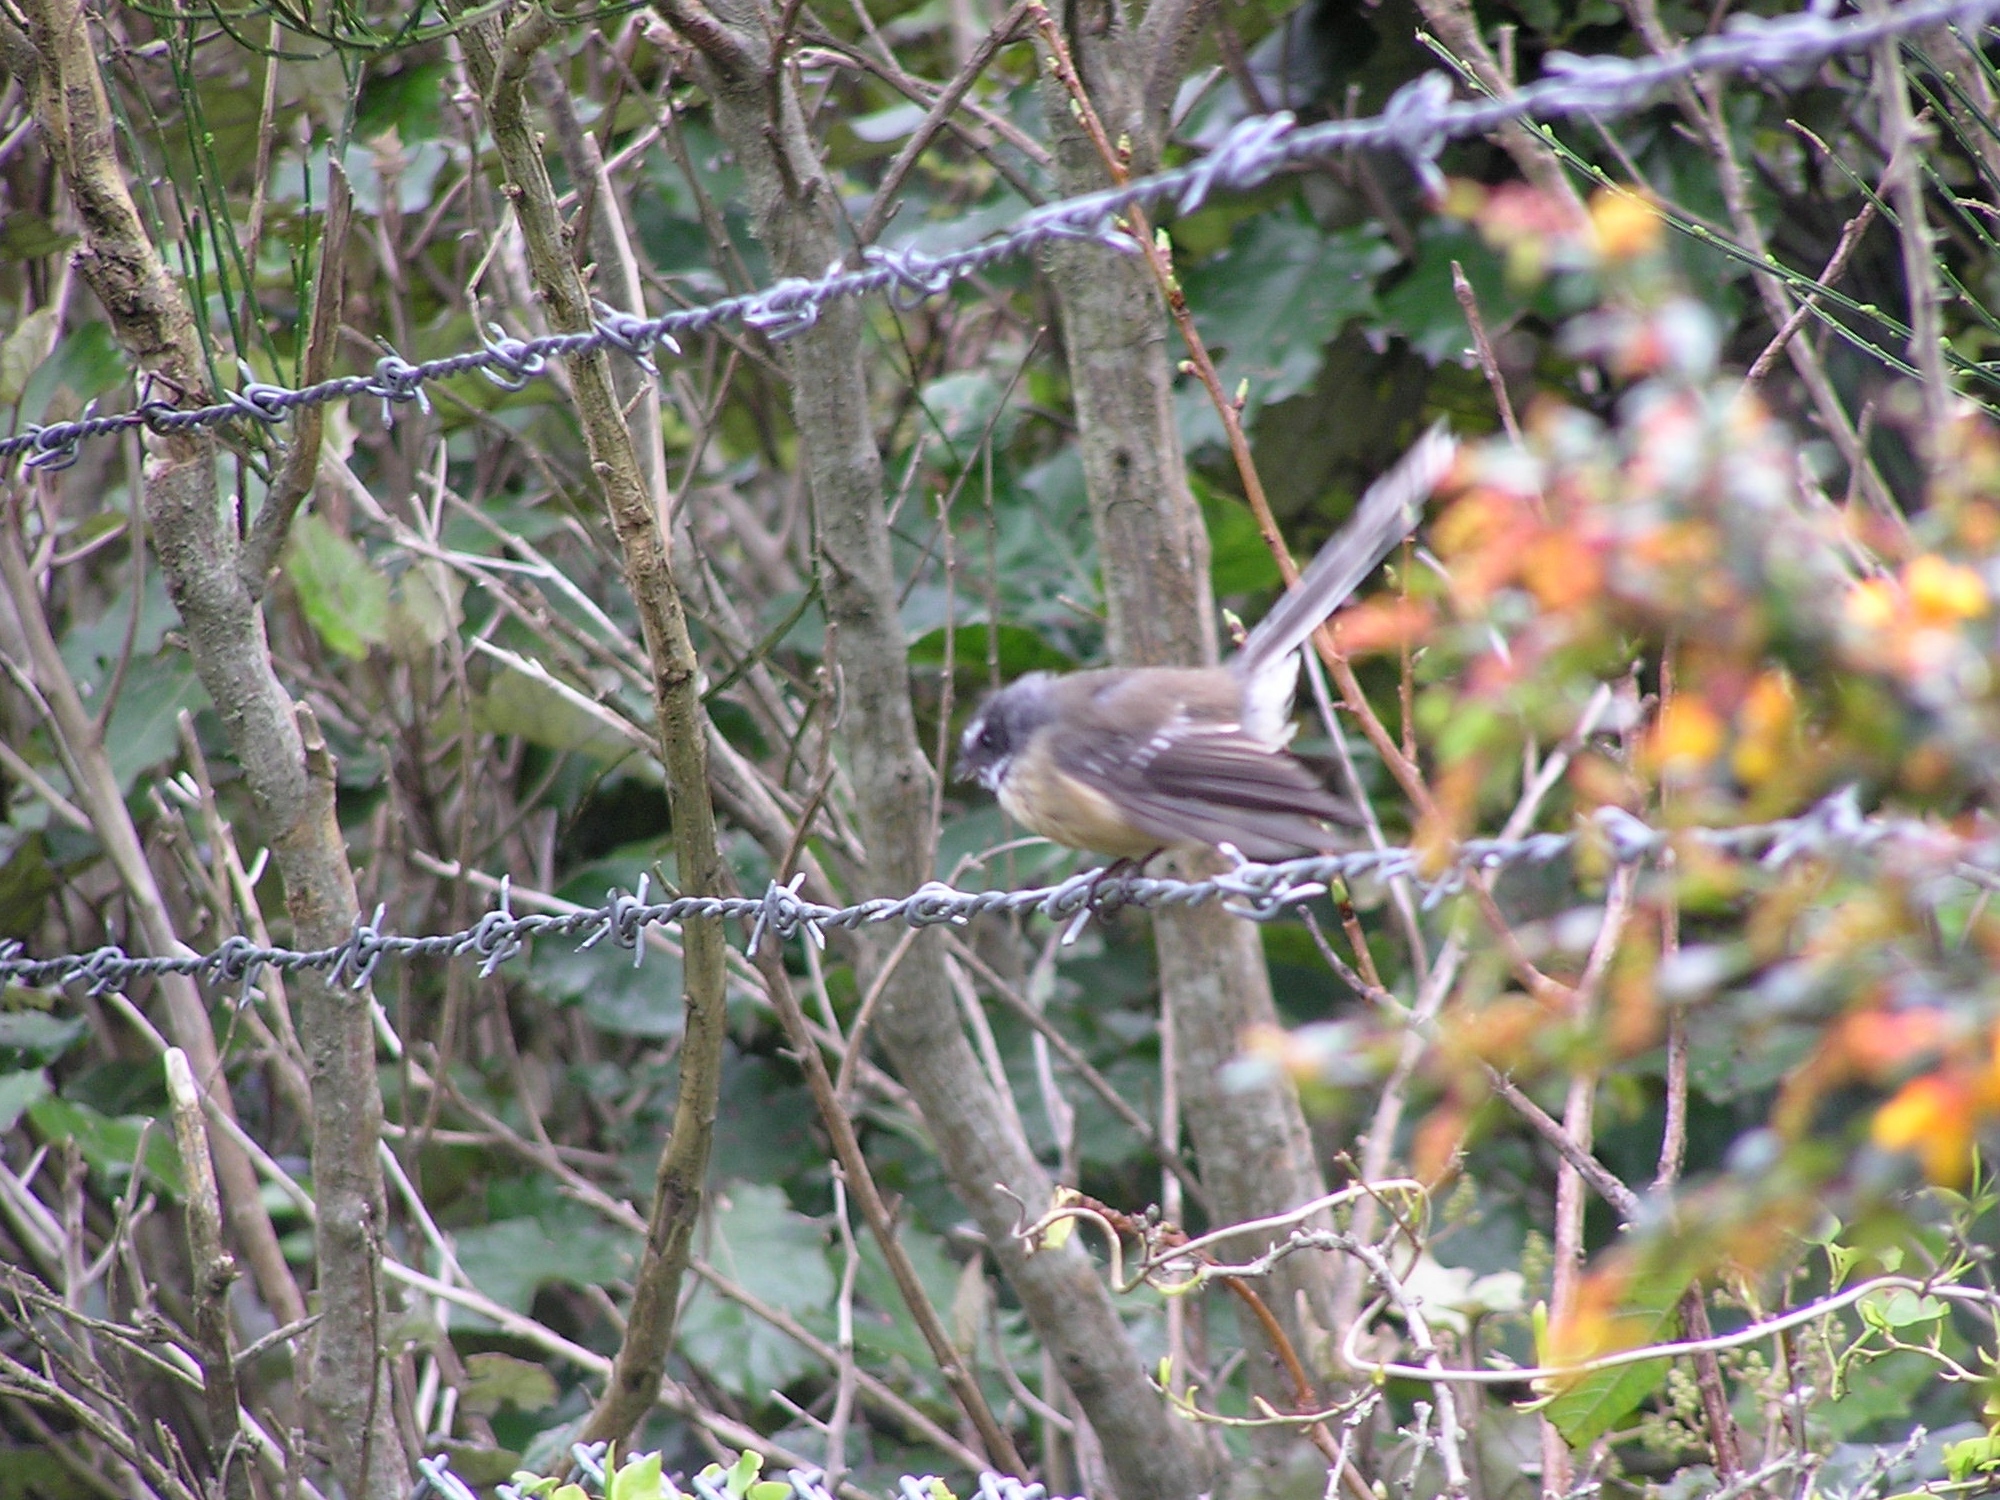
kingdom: Animalia
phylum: Chordata
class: Aves
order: Passeriformes
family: Rhipiduridae
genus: Rhipidura
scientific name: Rhipidura fuliginosa
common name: New zealand fantail
